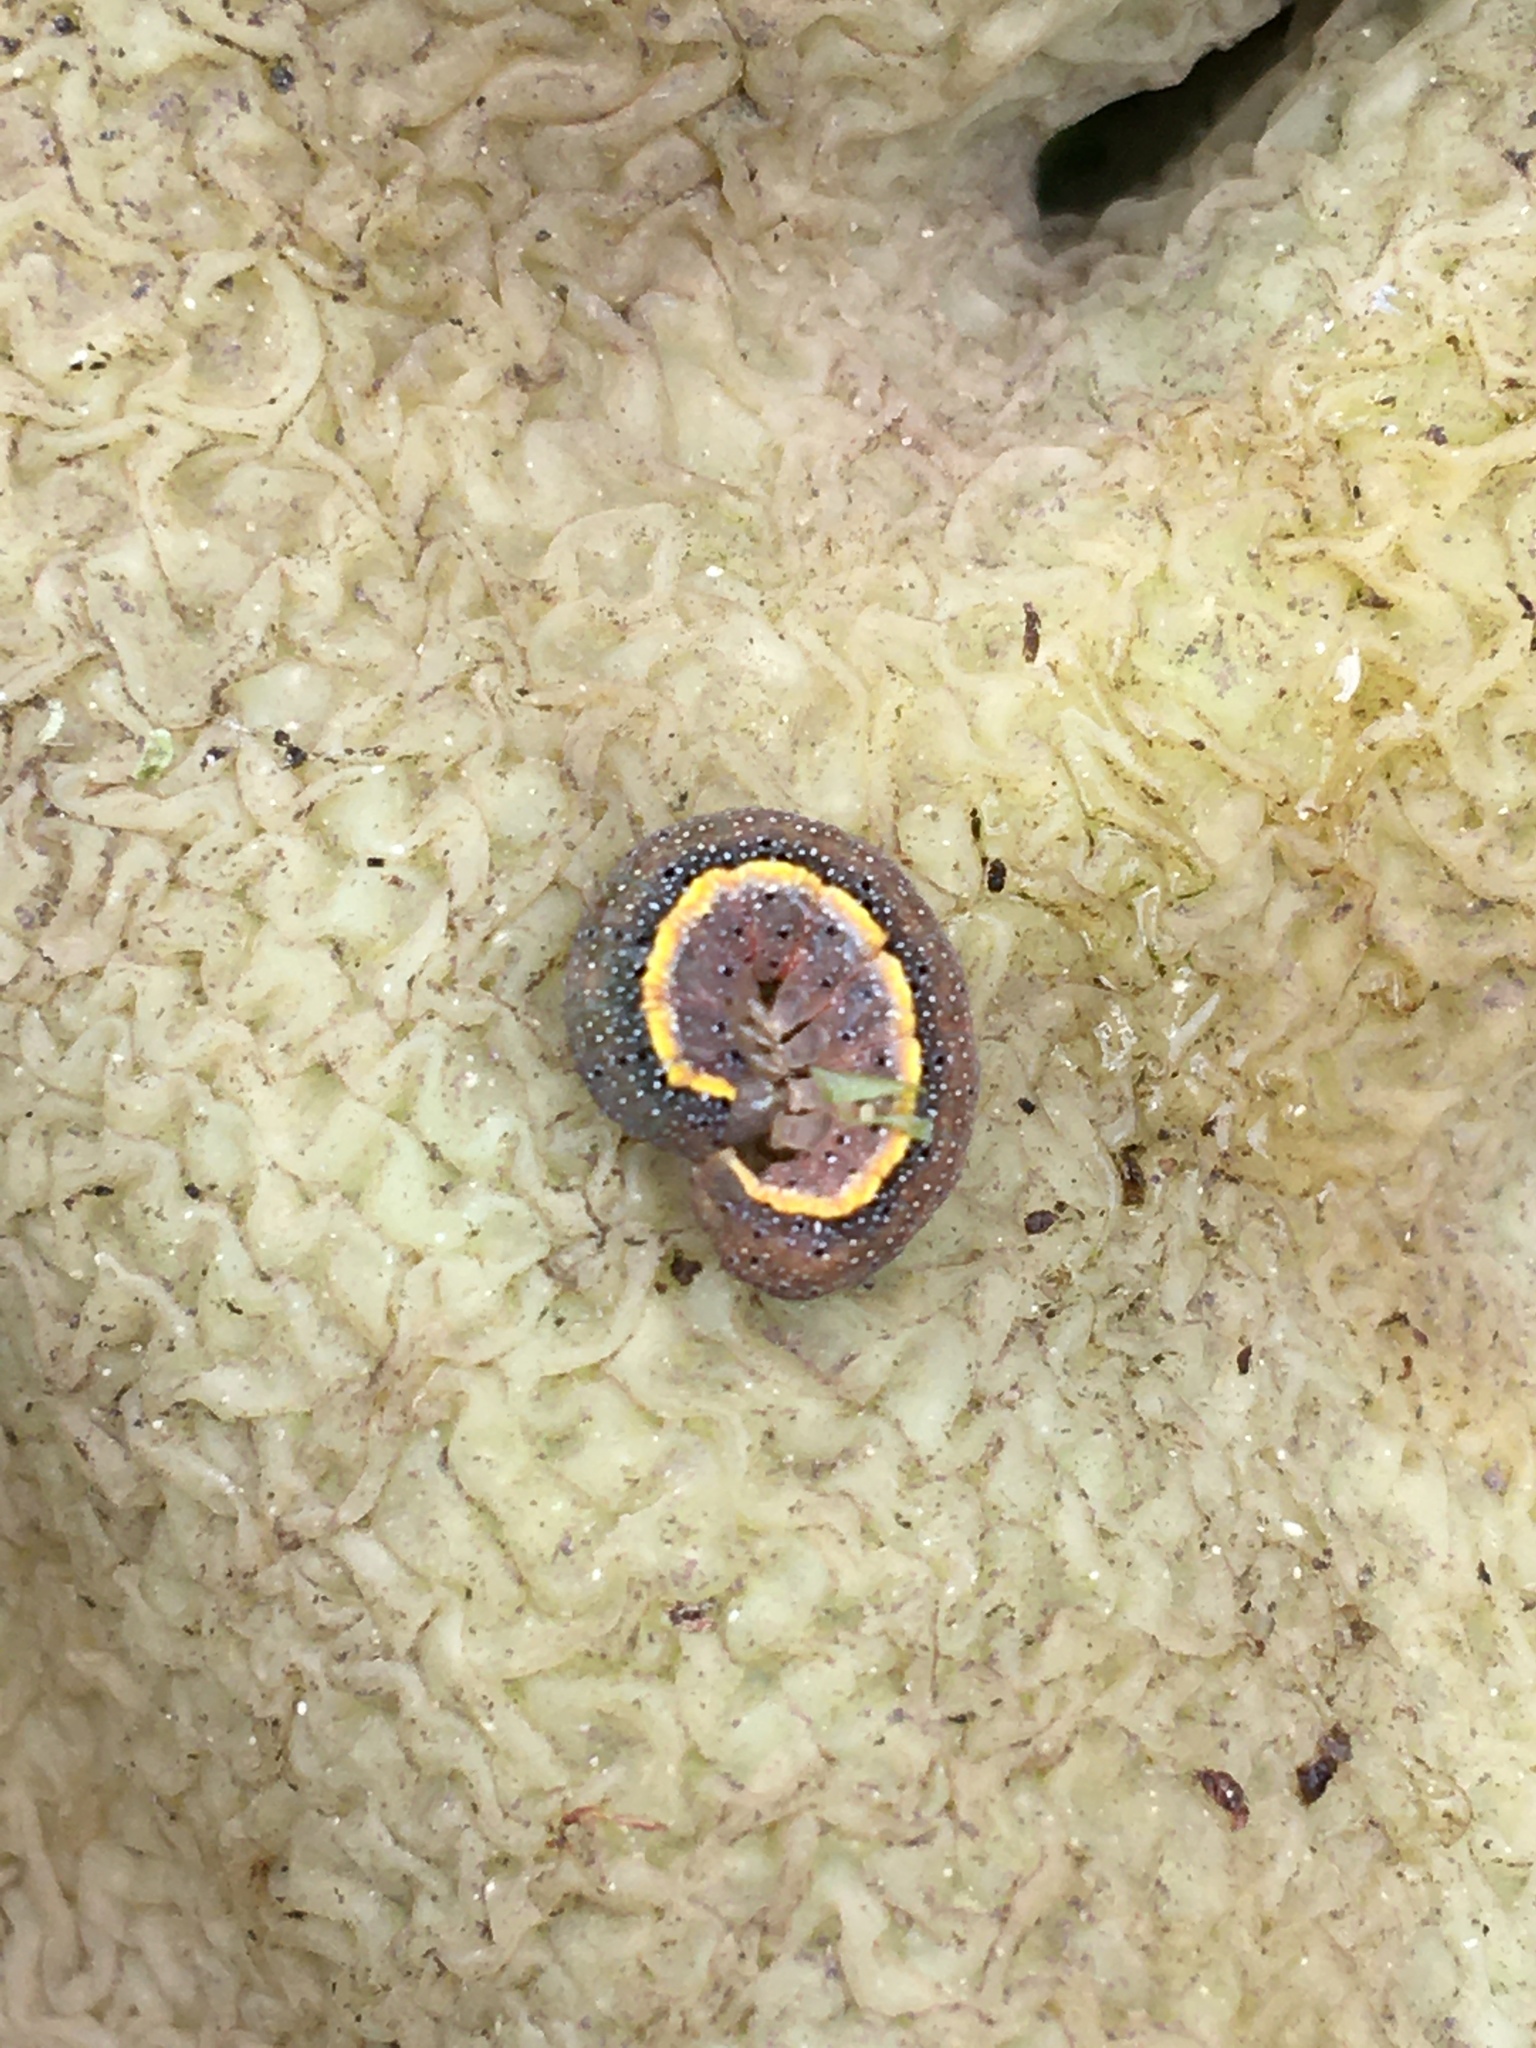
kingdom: Animalia
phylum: Arthropoda
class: Insecta
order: Lepidoptera
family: Noctuidae
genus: Lacanobia
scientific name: Lacanobia oleracea
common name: Bright-line brown-eye
